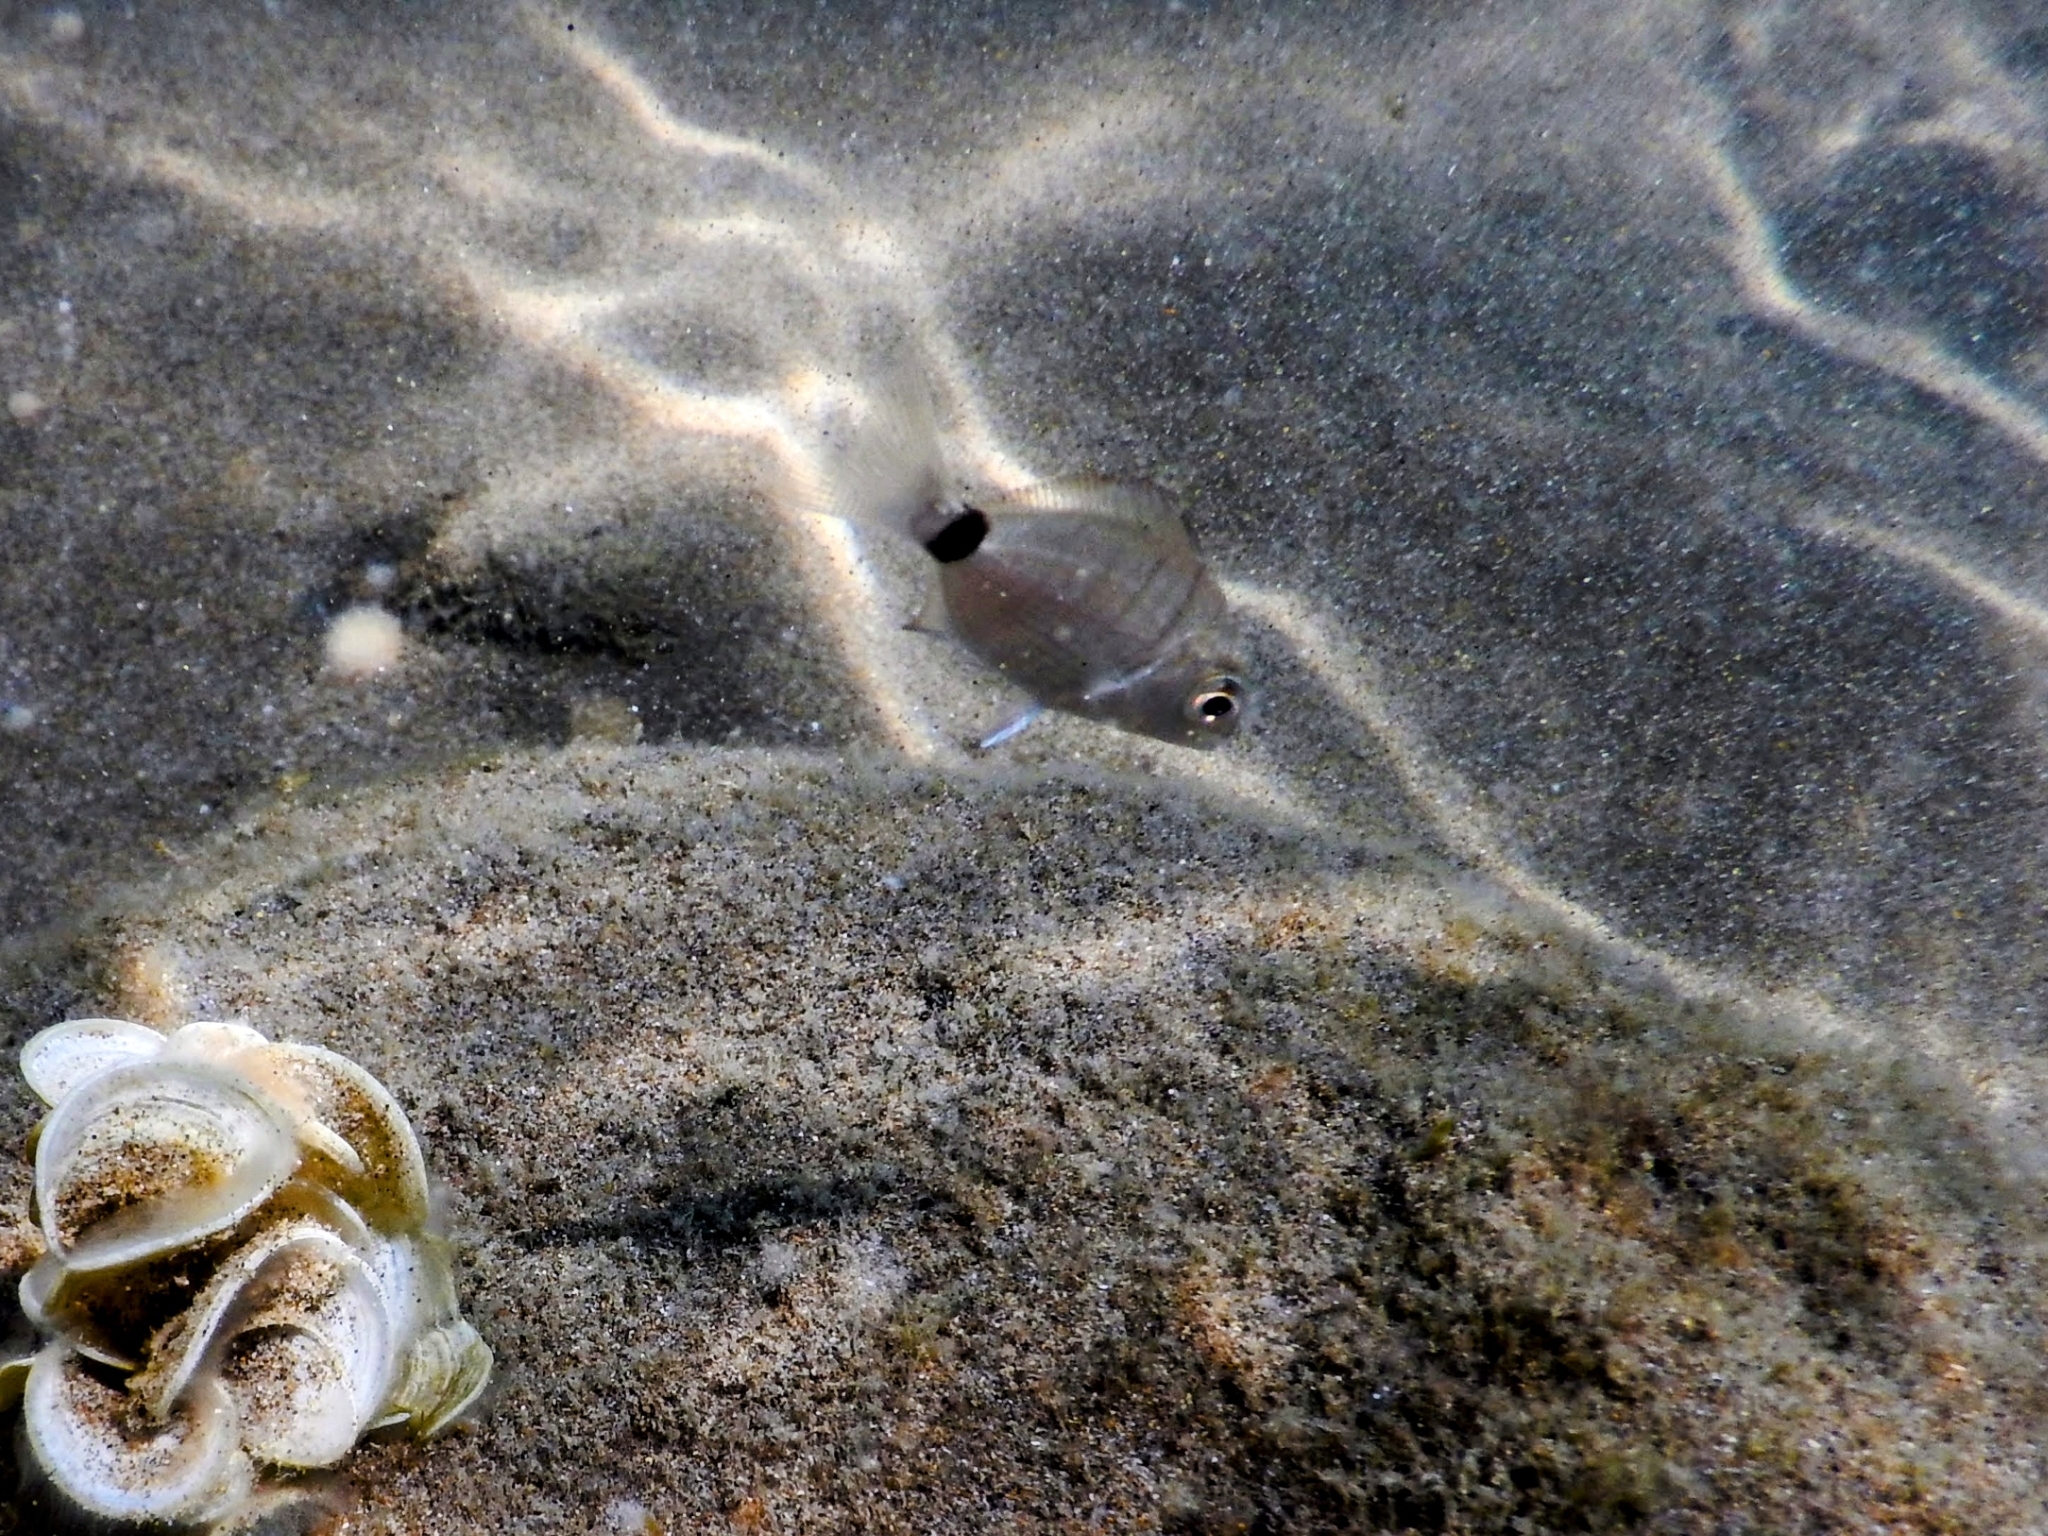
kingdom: Animalia
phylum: Chordata
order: Perciformes
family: Sparidae
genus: Diplodus
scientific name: Diplodus sargus
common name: White seabream
